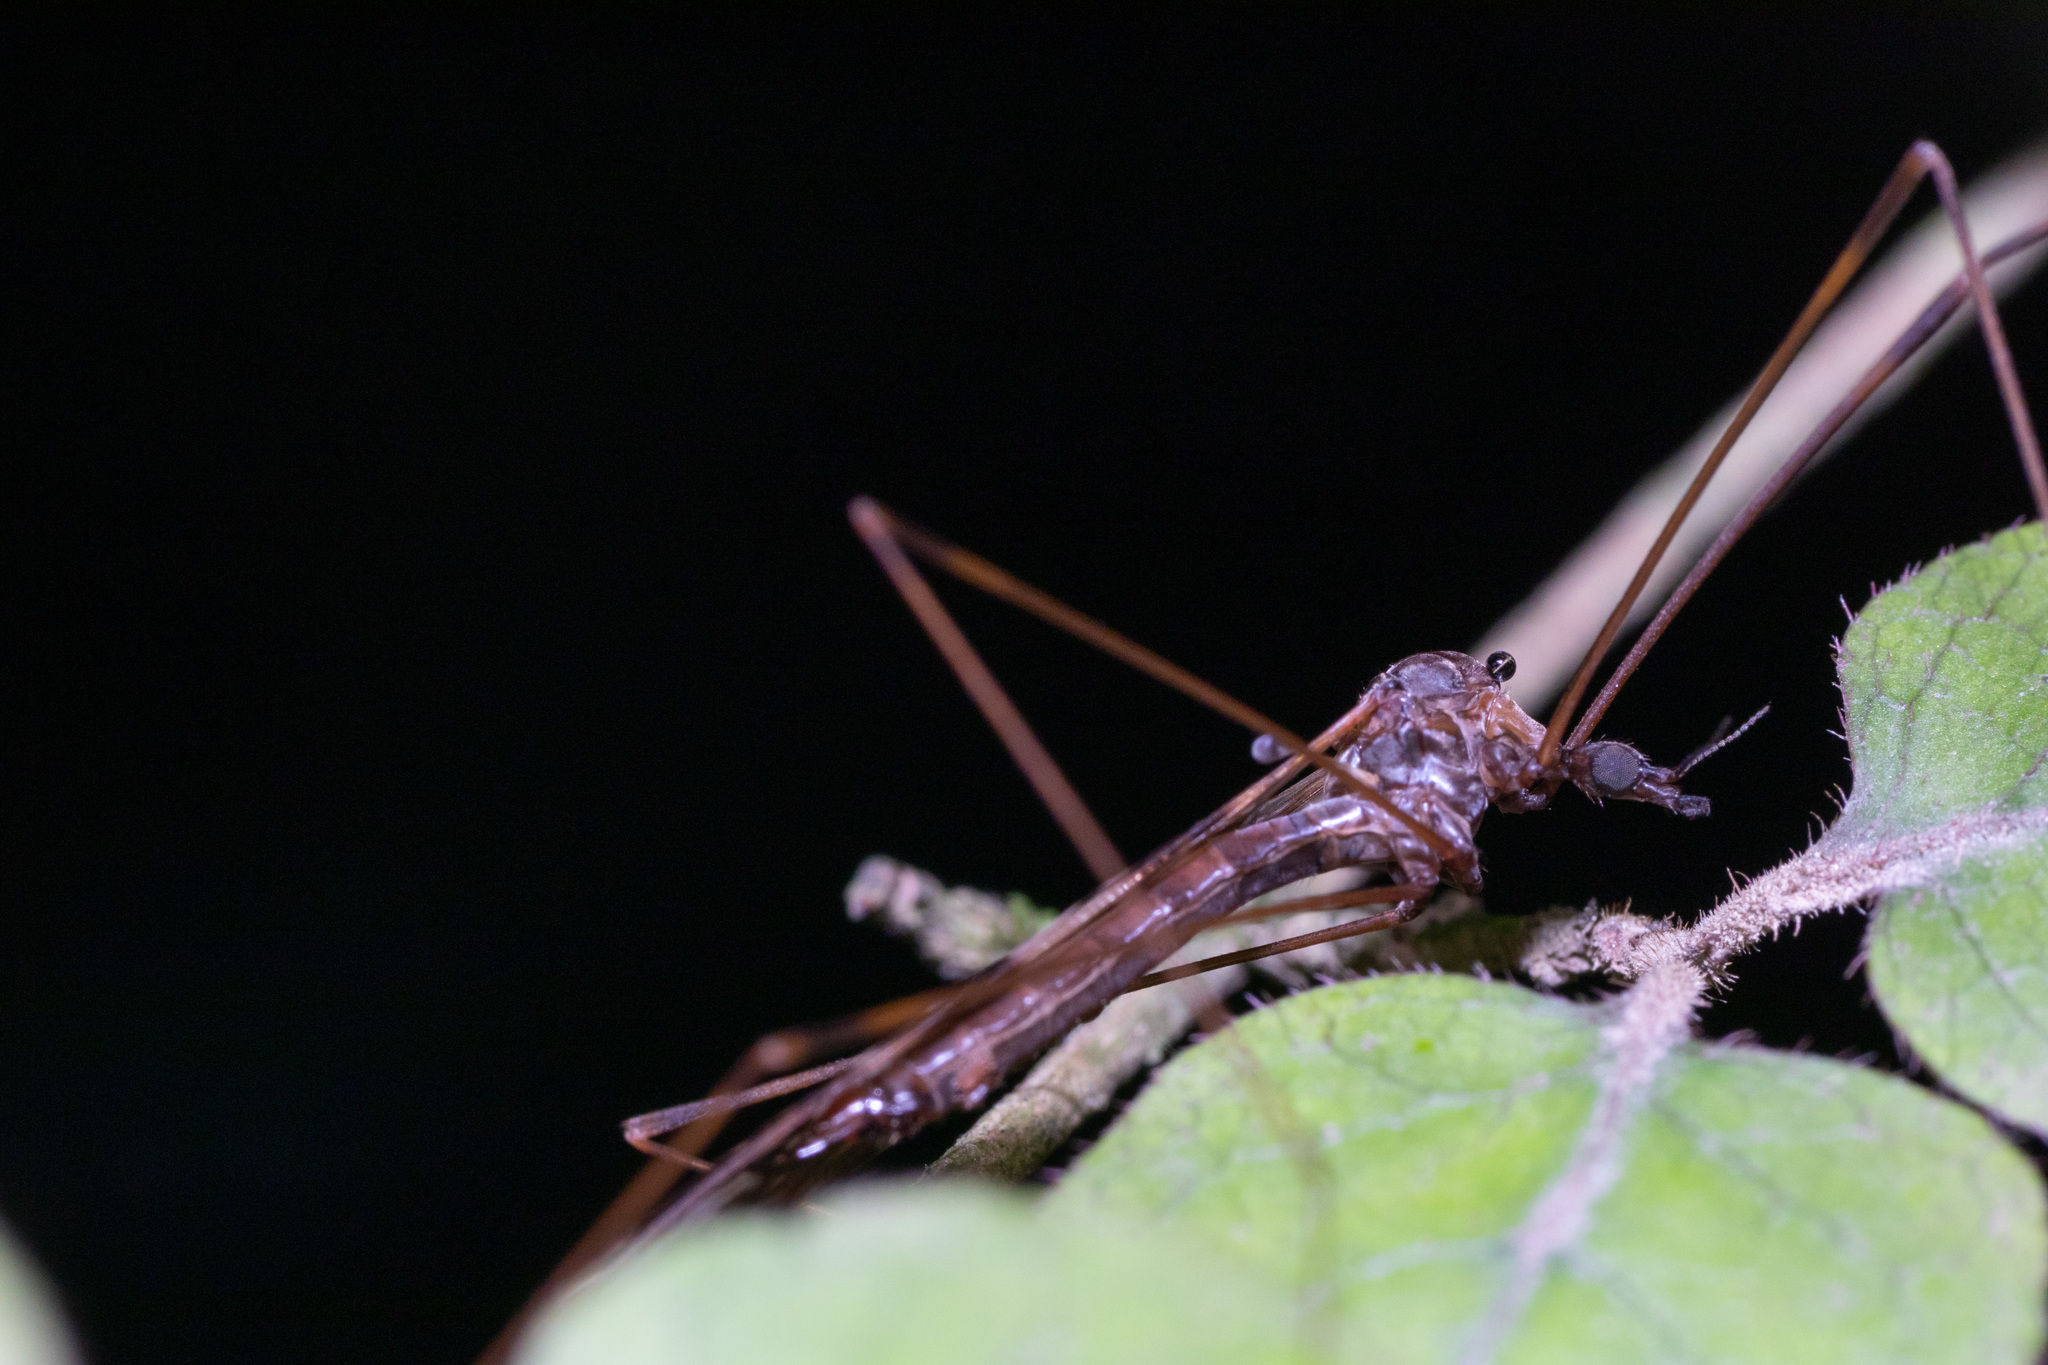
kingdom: Animalia
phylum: Arthropoda
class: Insecta
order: Diptera
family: Limoniidae
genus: Discobola
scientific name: Discobola dohrni
